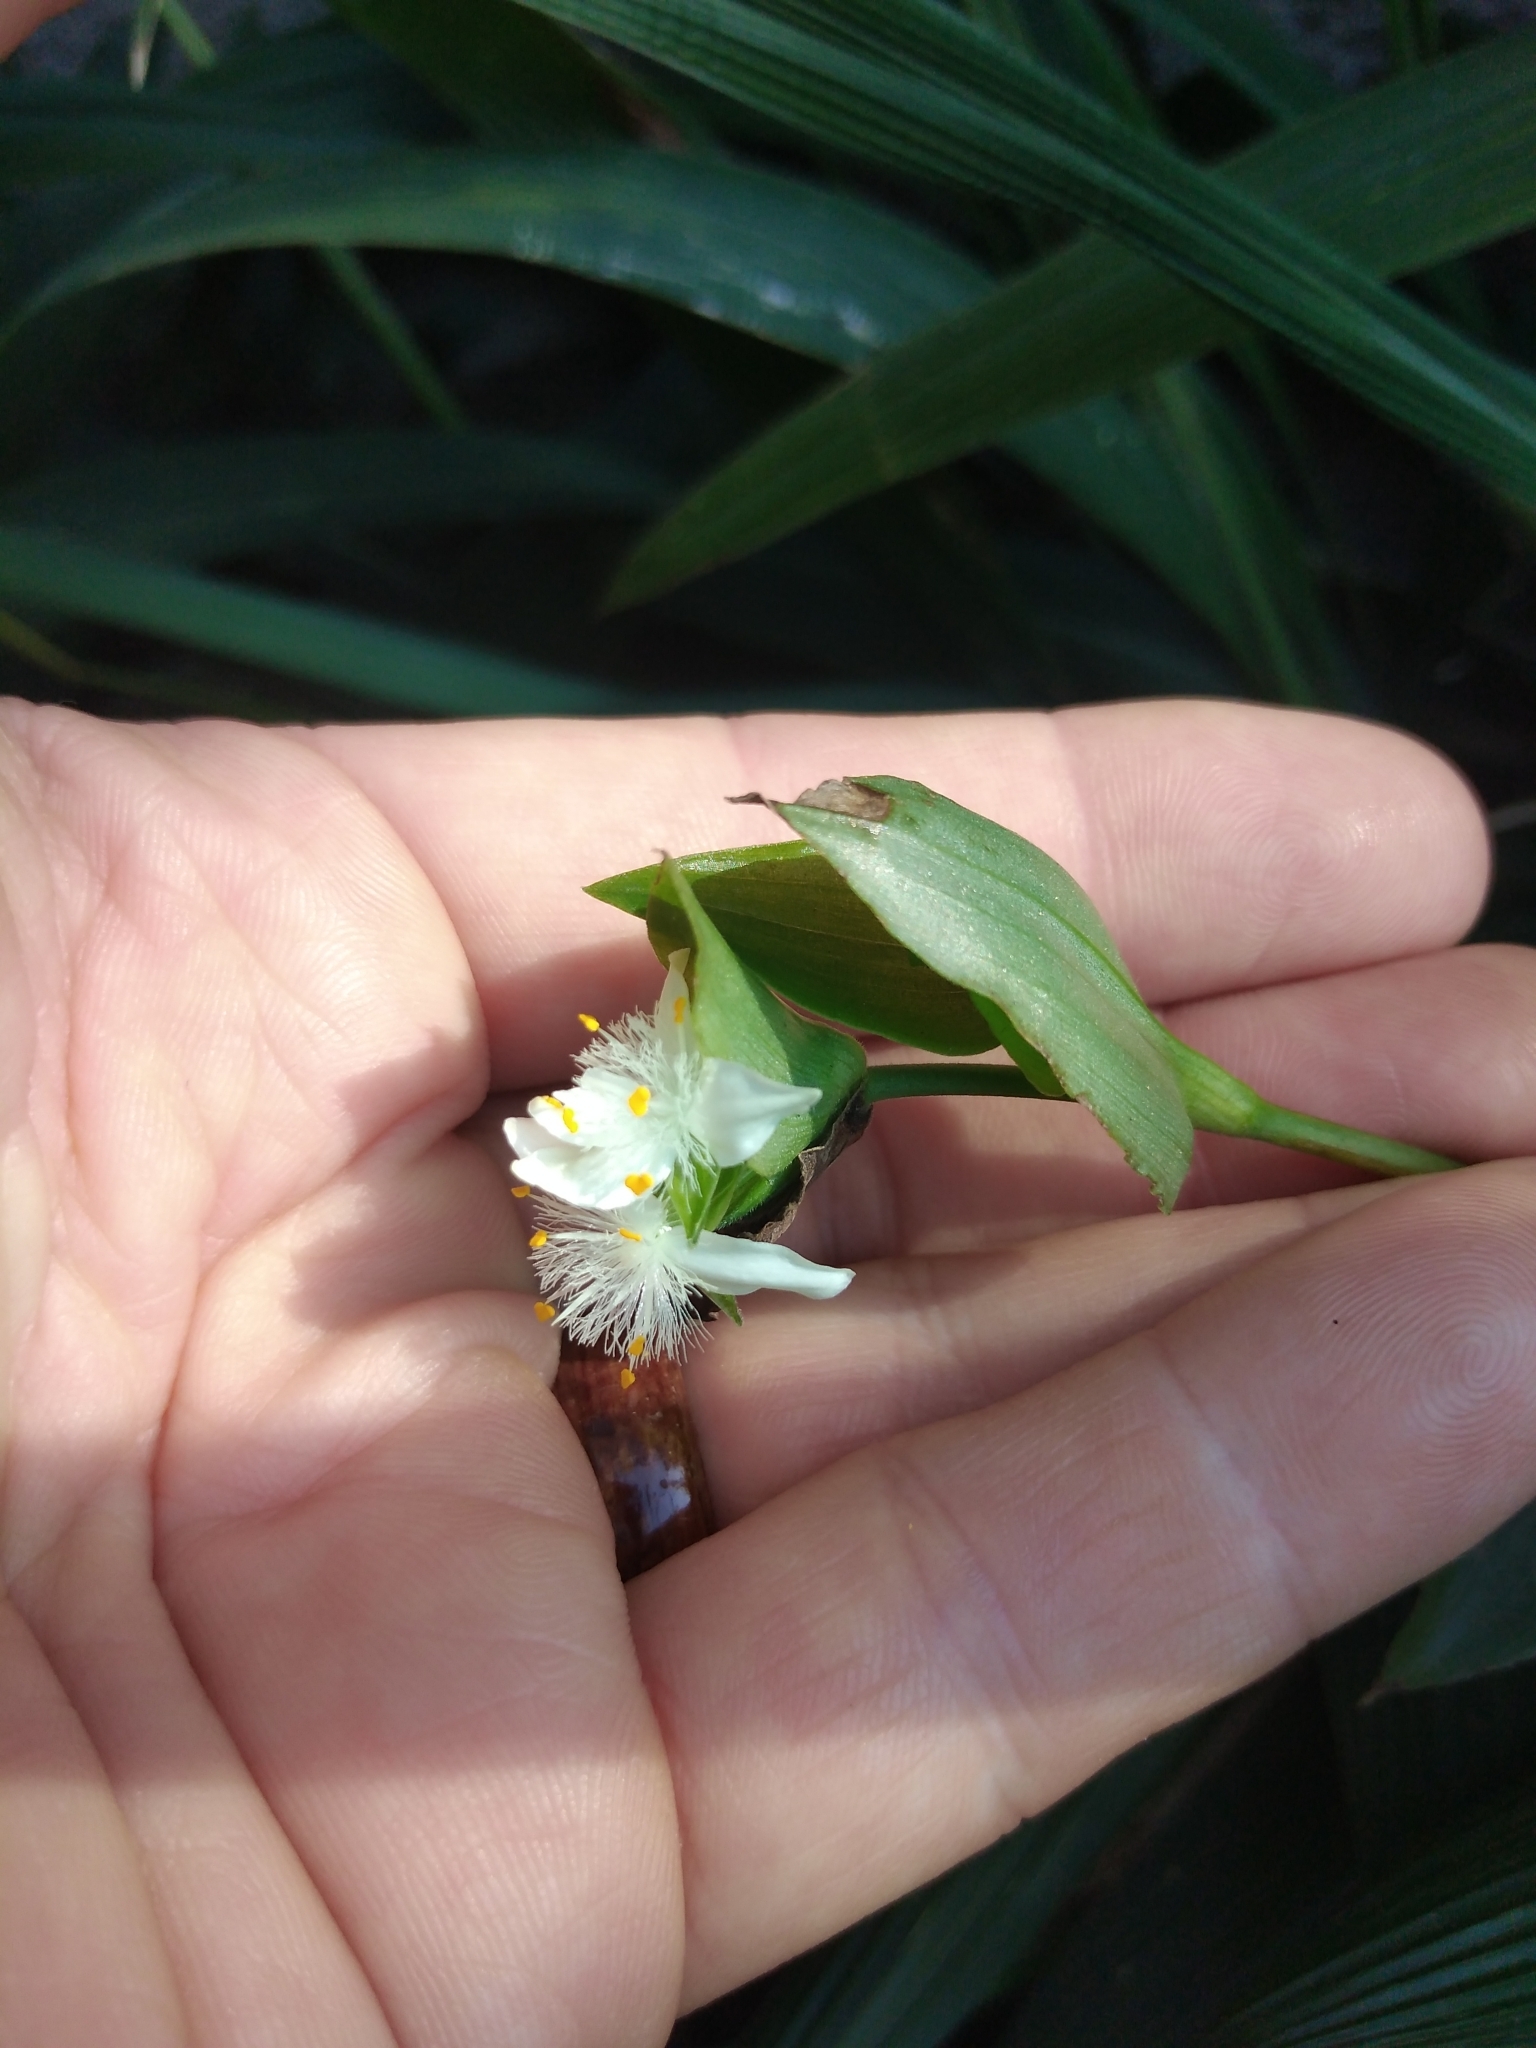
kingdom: Plantae
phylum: Tracheophyta
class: Liliopsida
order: Commelinales
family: Commelinaceae
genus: Tradescantia
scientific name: Tradescantia fluminensis
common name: Wandering-jew
